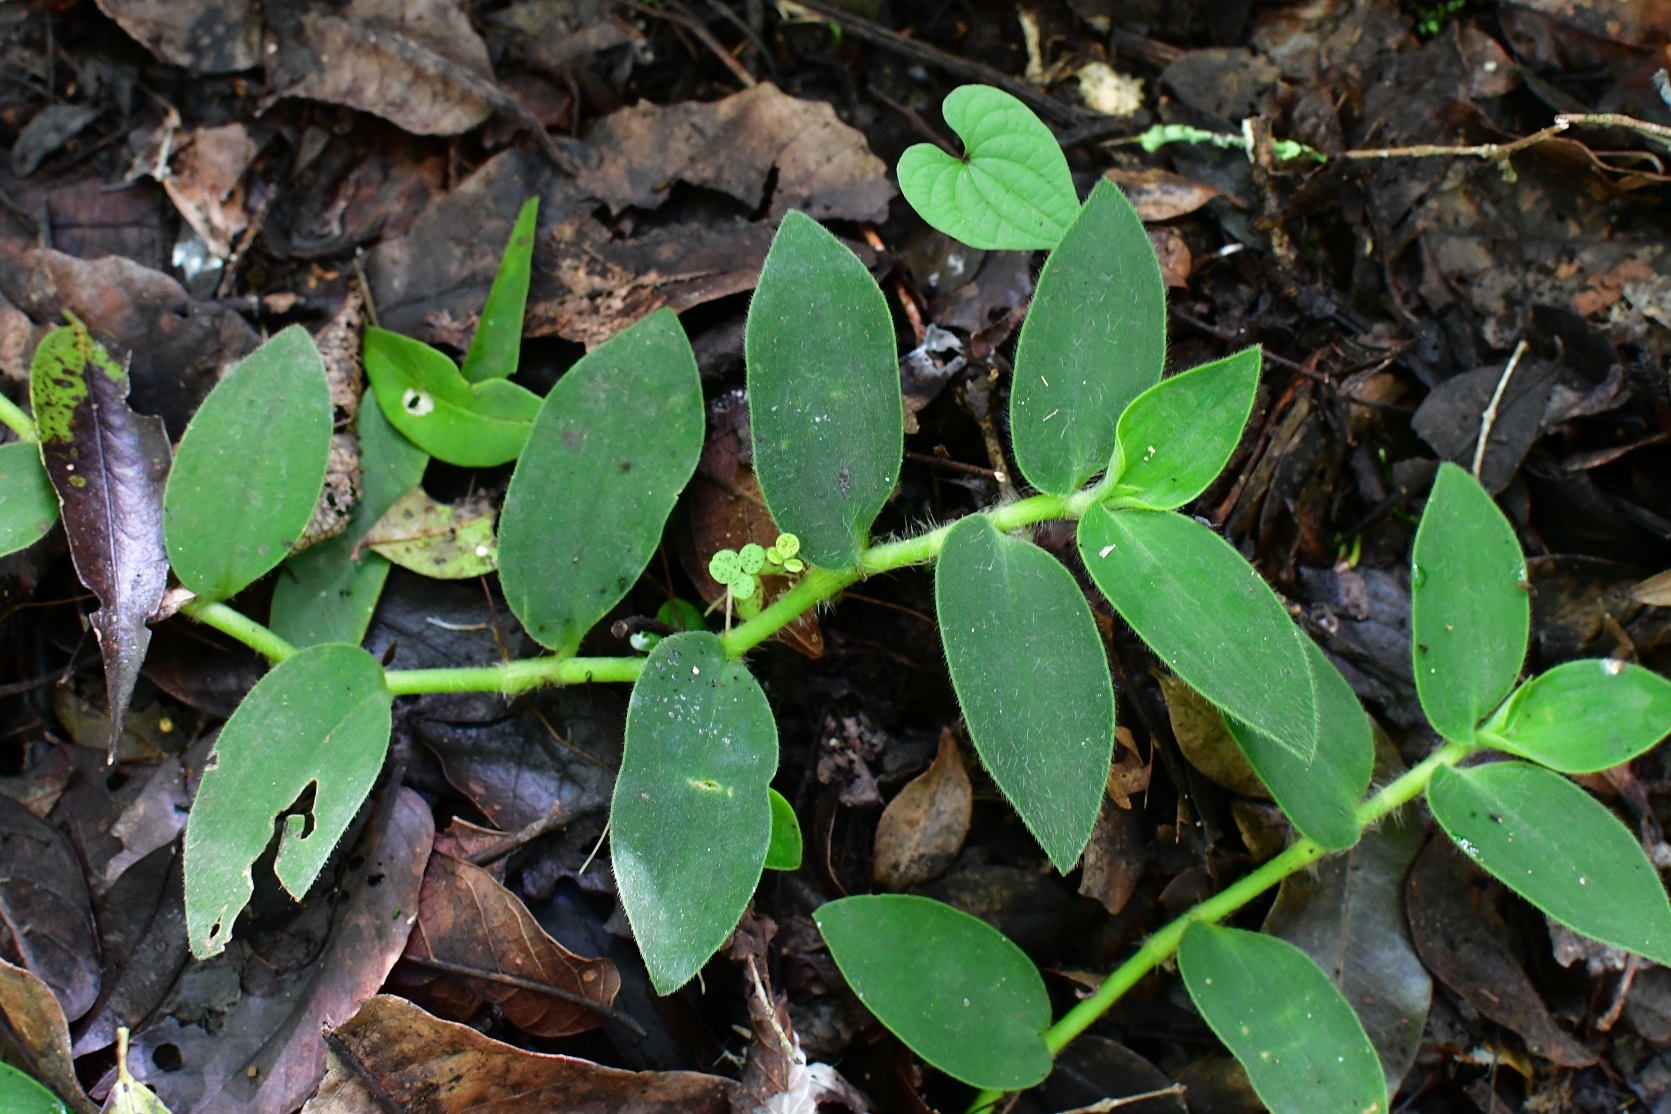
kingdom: Plantae
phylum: Tracheophyta
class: Liliopsida
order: Commelinales
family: Commelinaceae
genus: Tradescantia
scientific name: Tradescantia schippii
